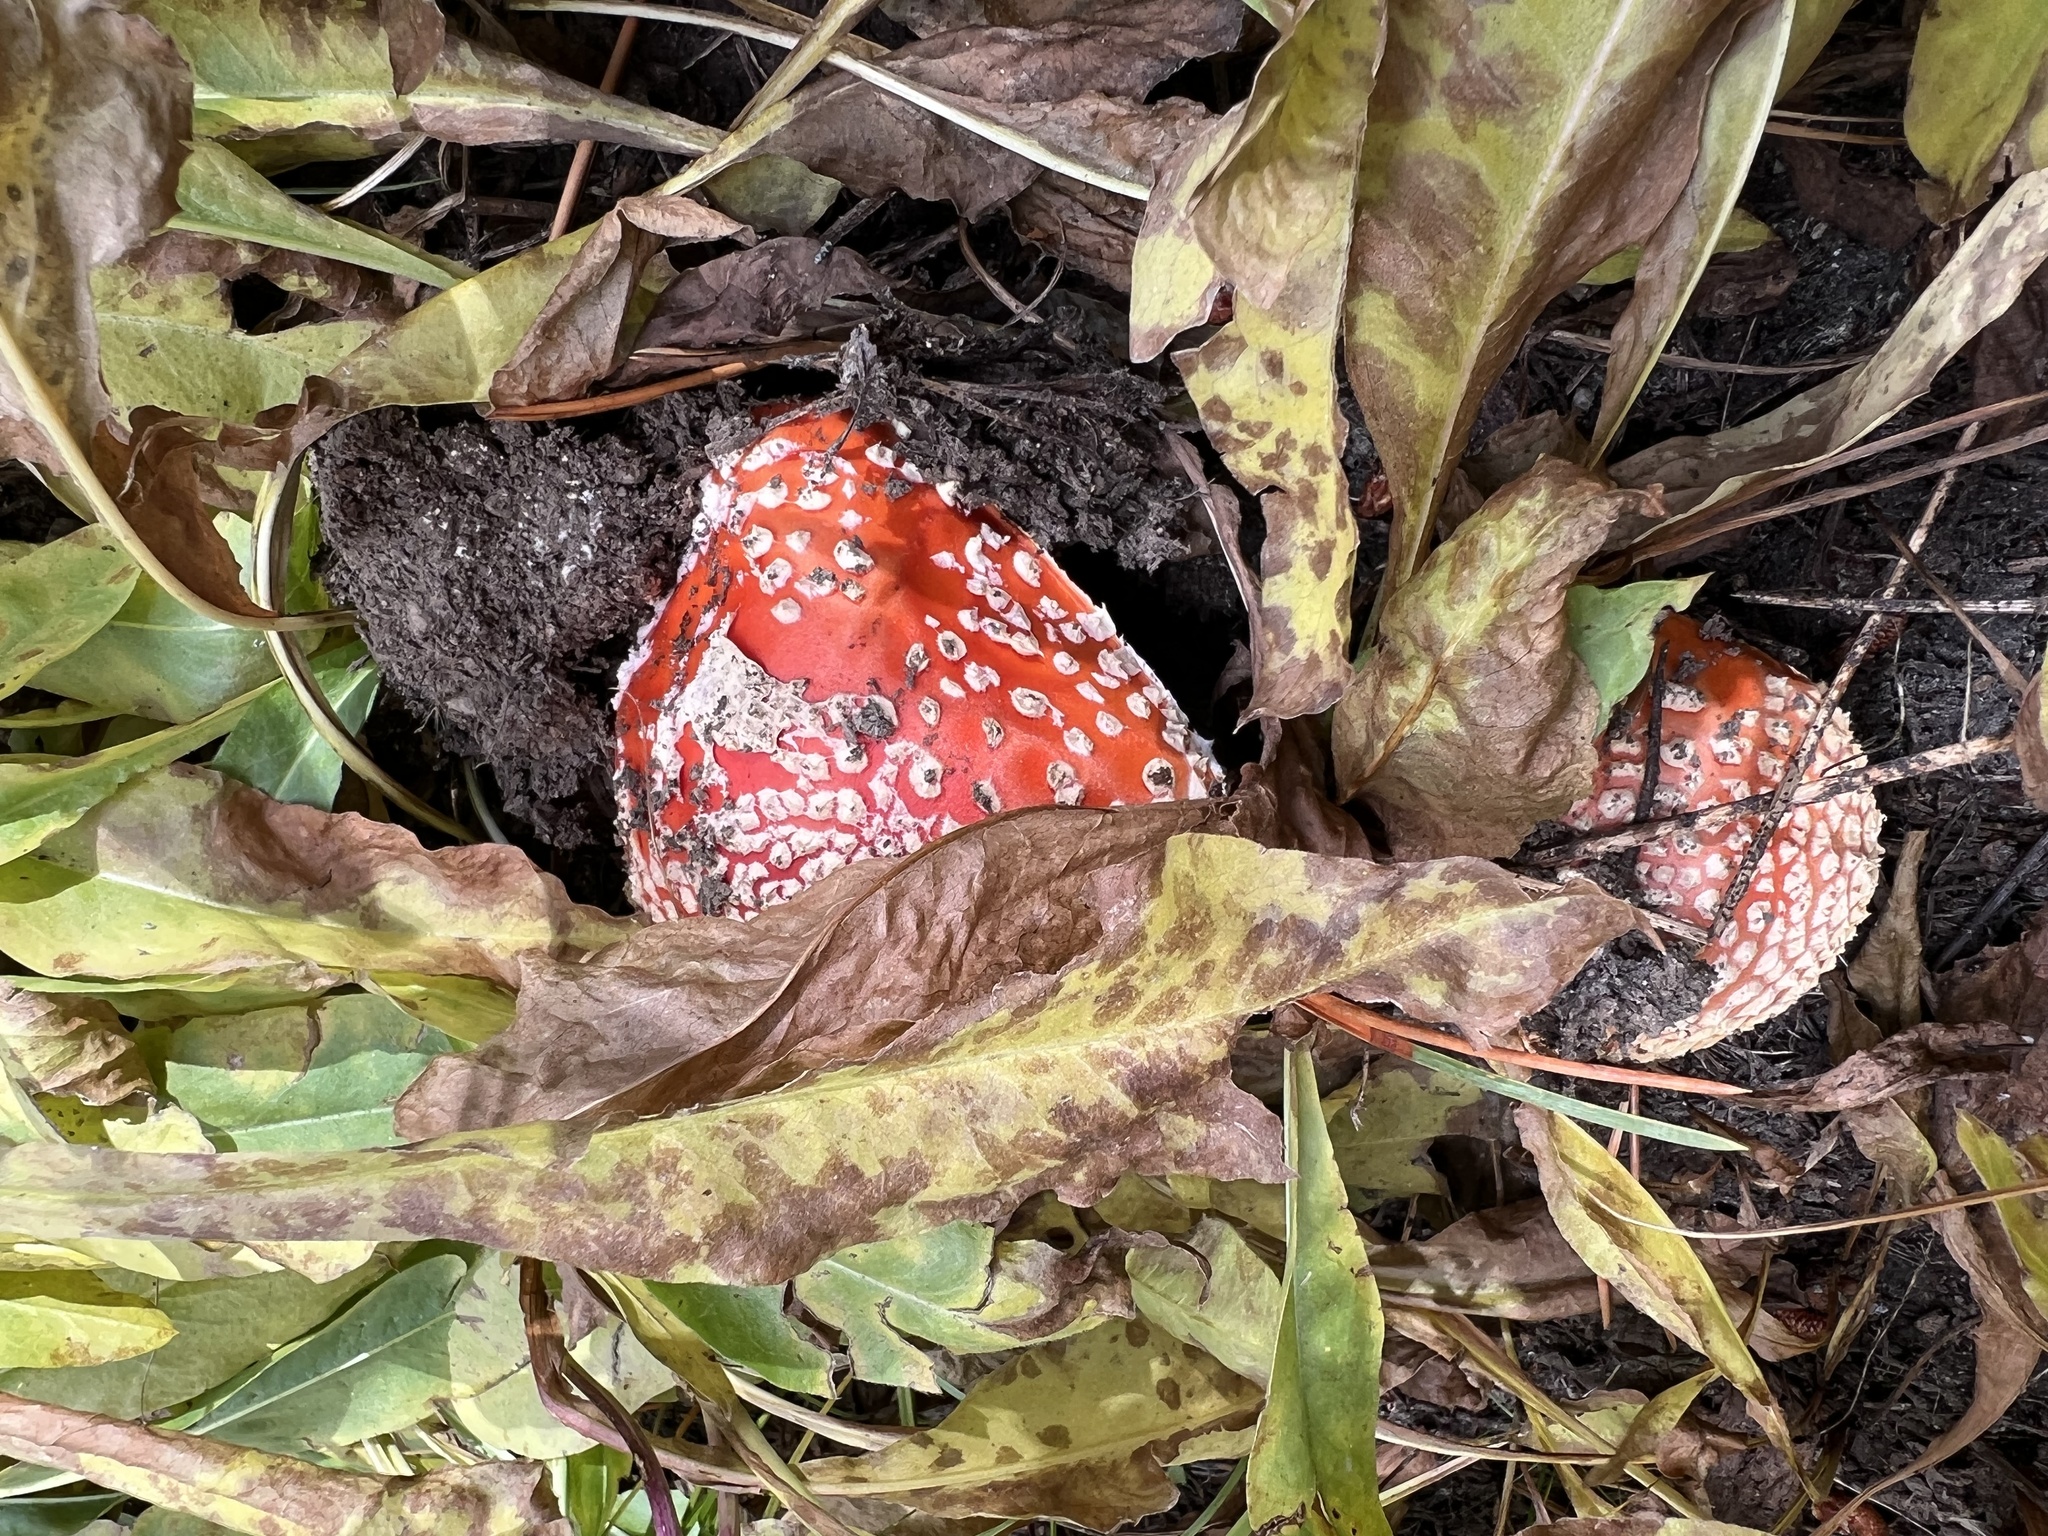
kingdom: Fungi
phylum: Basidiomycota
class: Agaricomycetes
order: Agaricales
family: Amanitaceae
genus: Amanita
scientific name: Amanita muscaria
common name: Fly agaric
